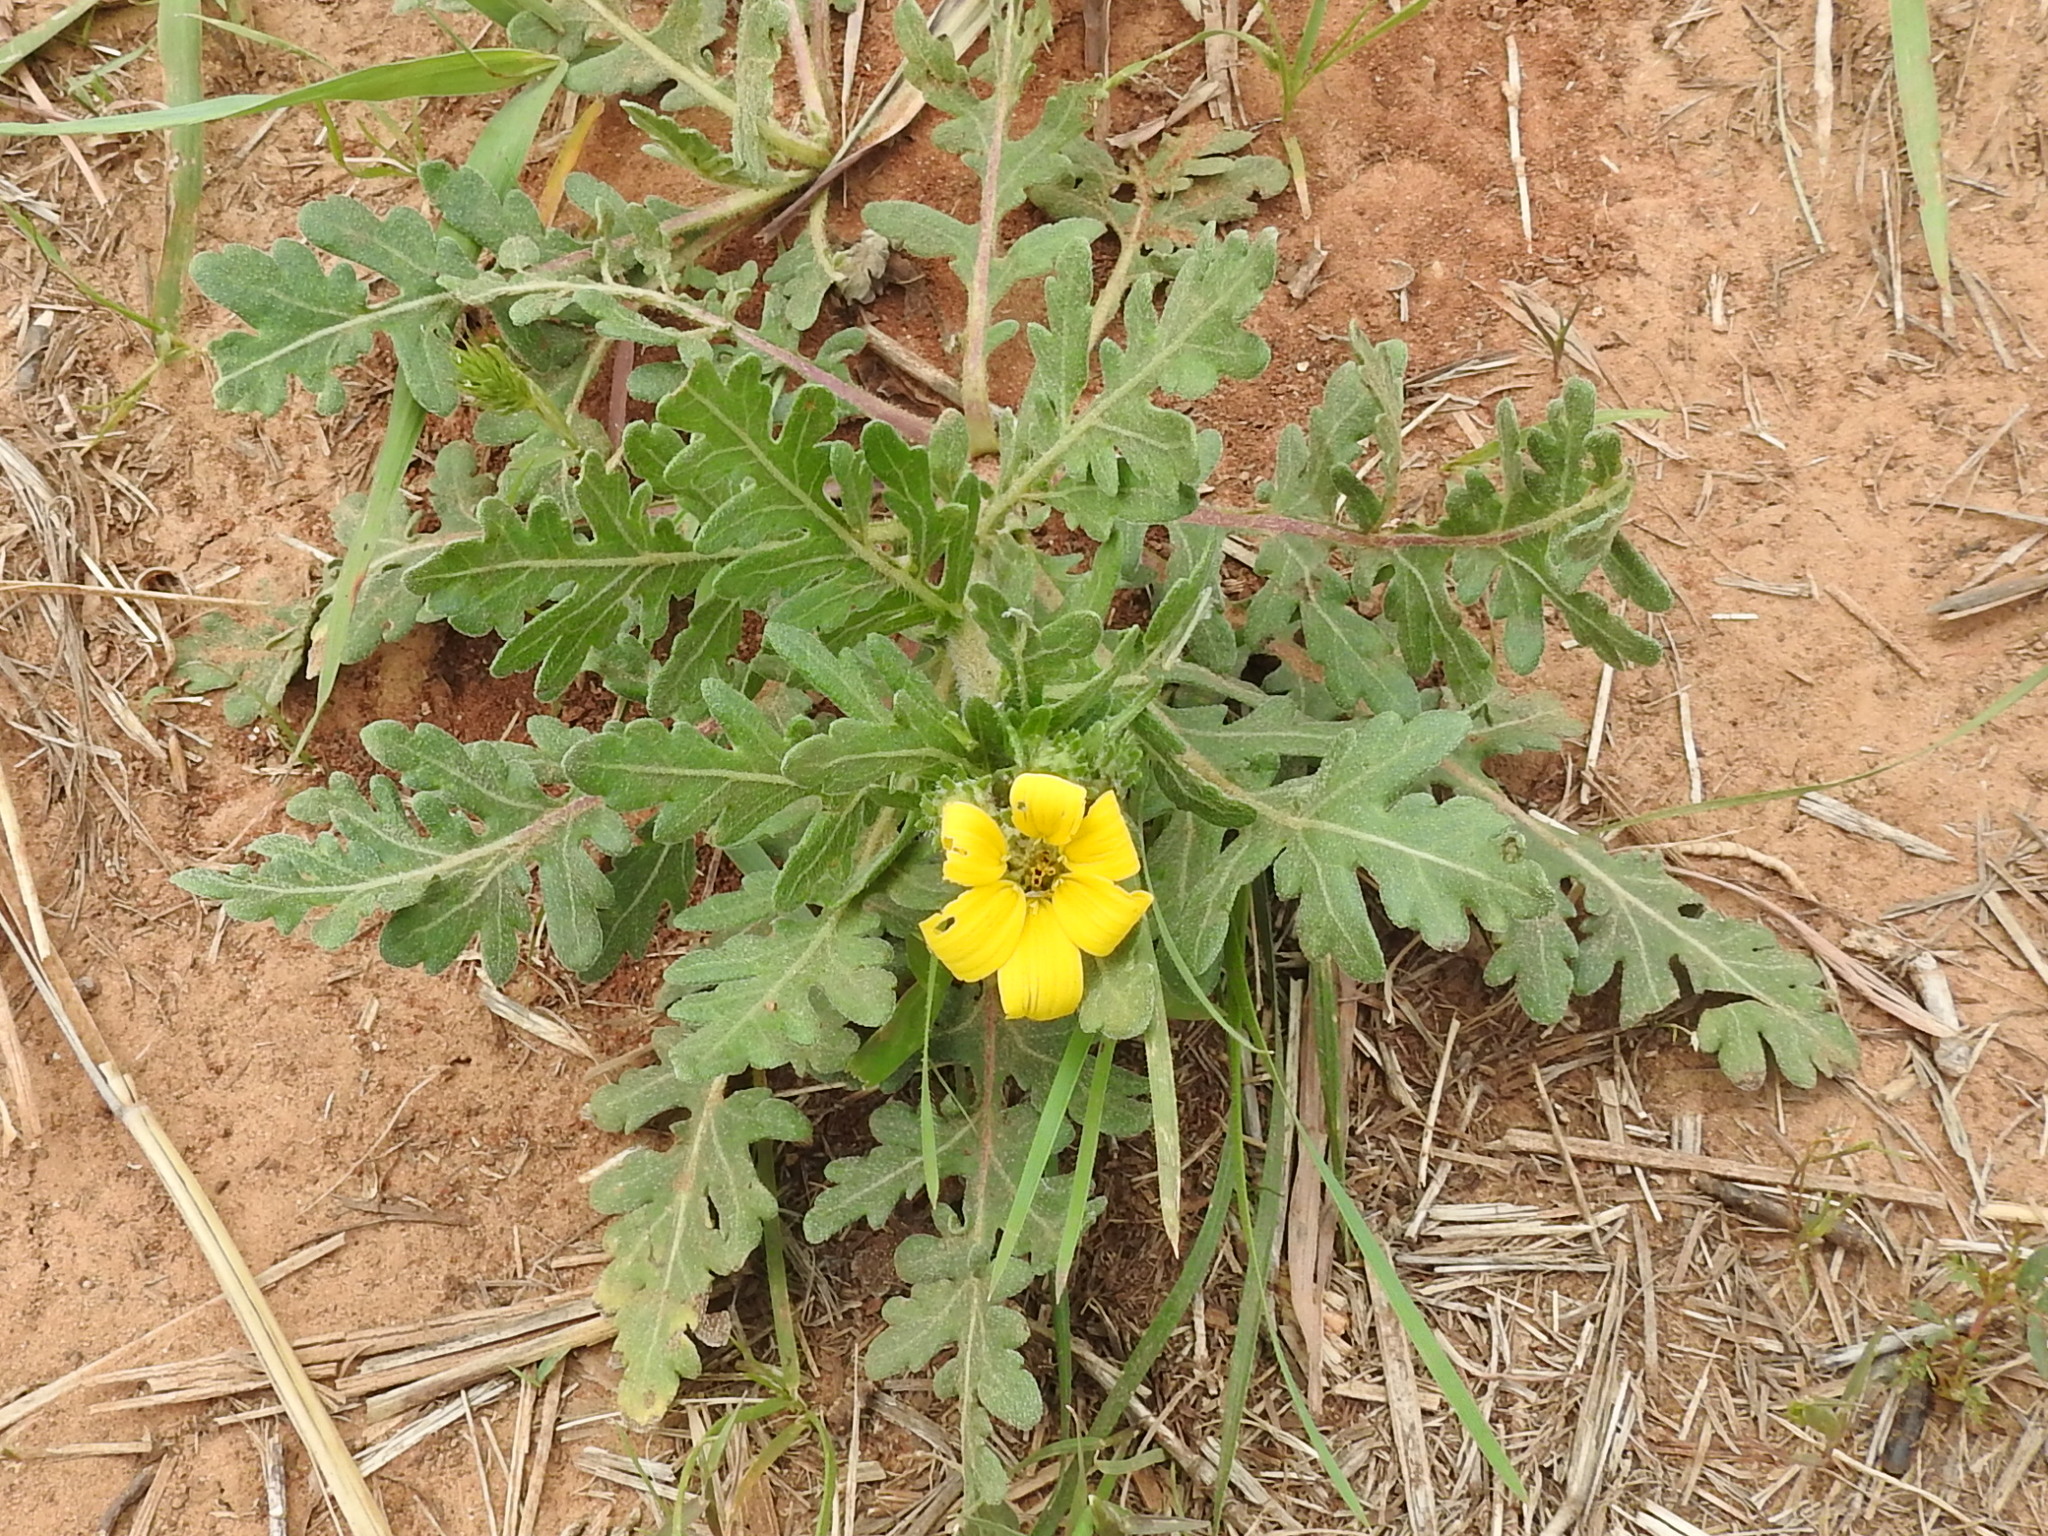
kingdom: Plantae
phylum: Tracheophyta
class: Magnoliopsida
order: Asterales
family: Asteraceae
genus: Engelmannia
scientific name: Engelmannia peristenia
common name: Engelmann's daisy
